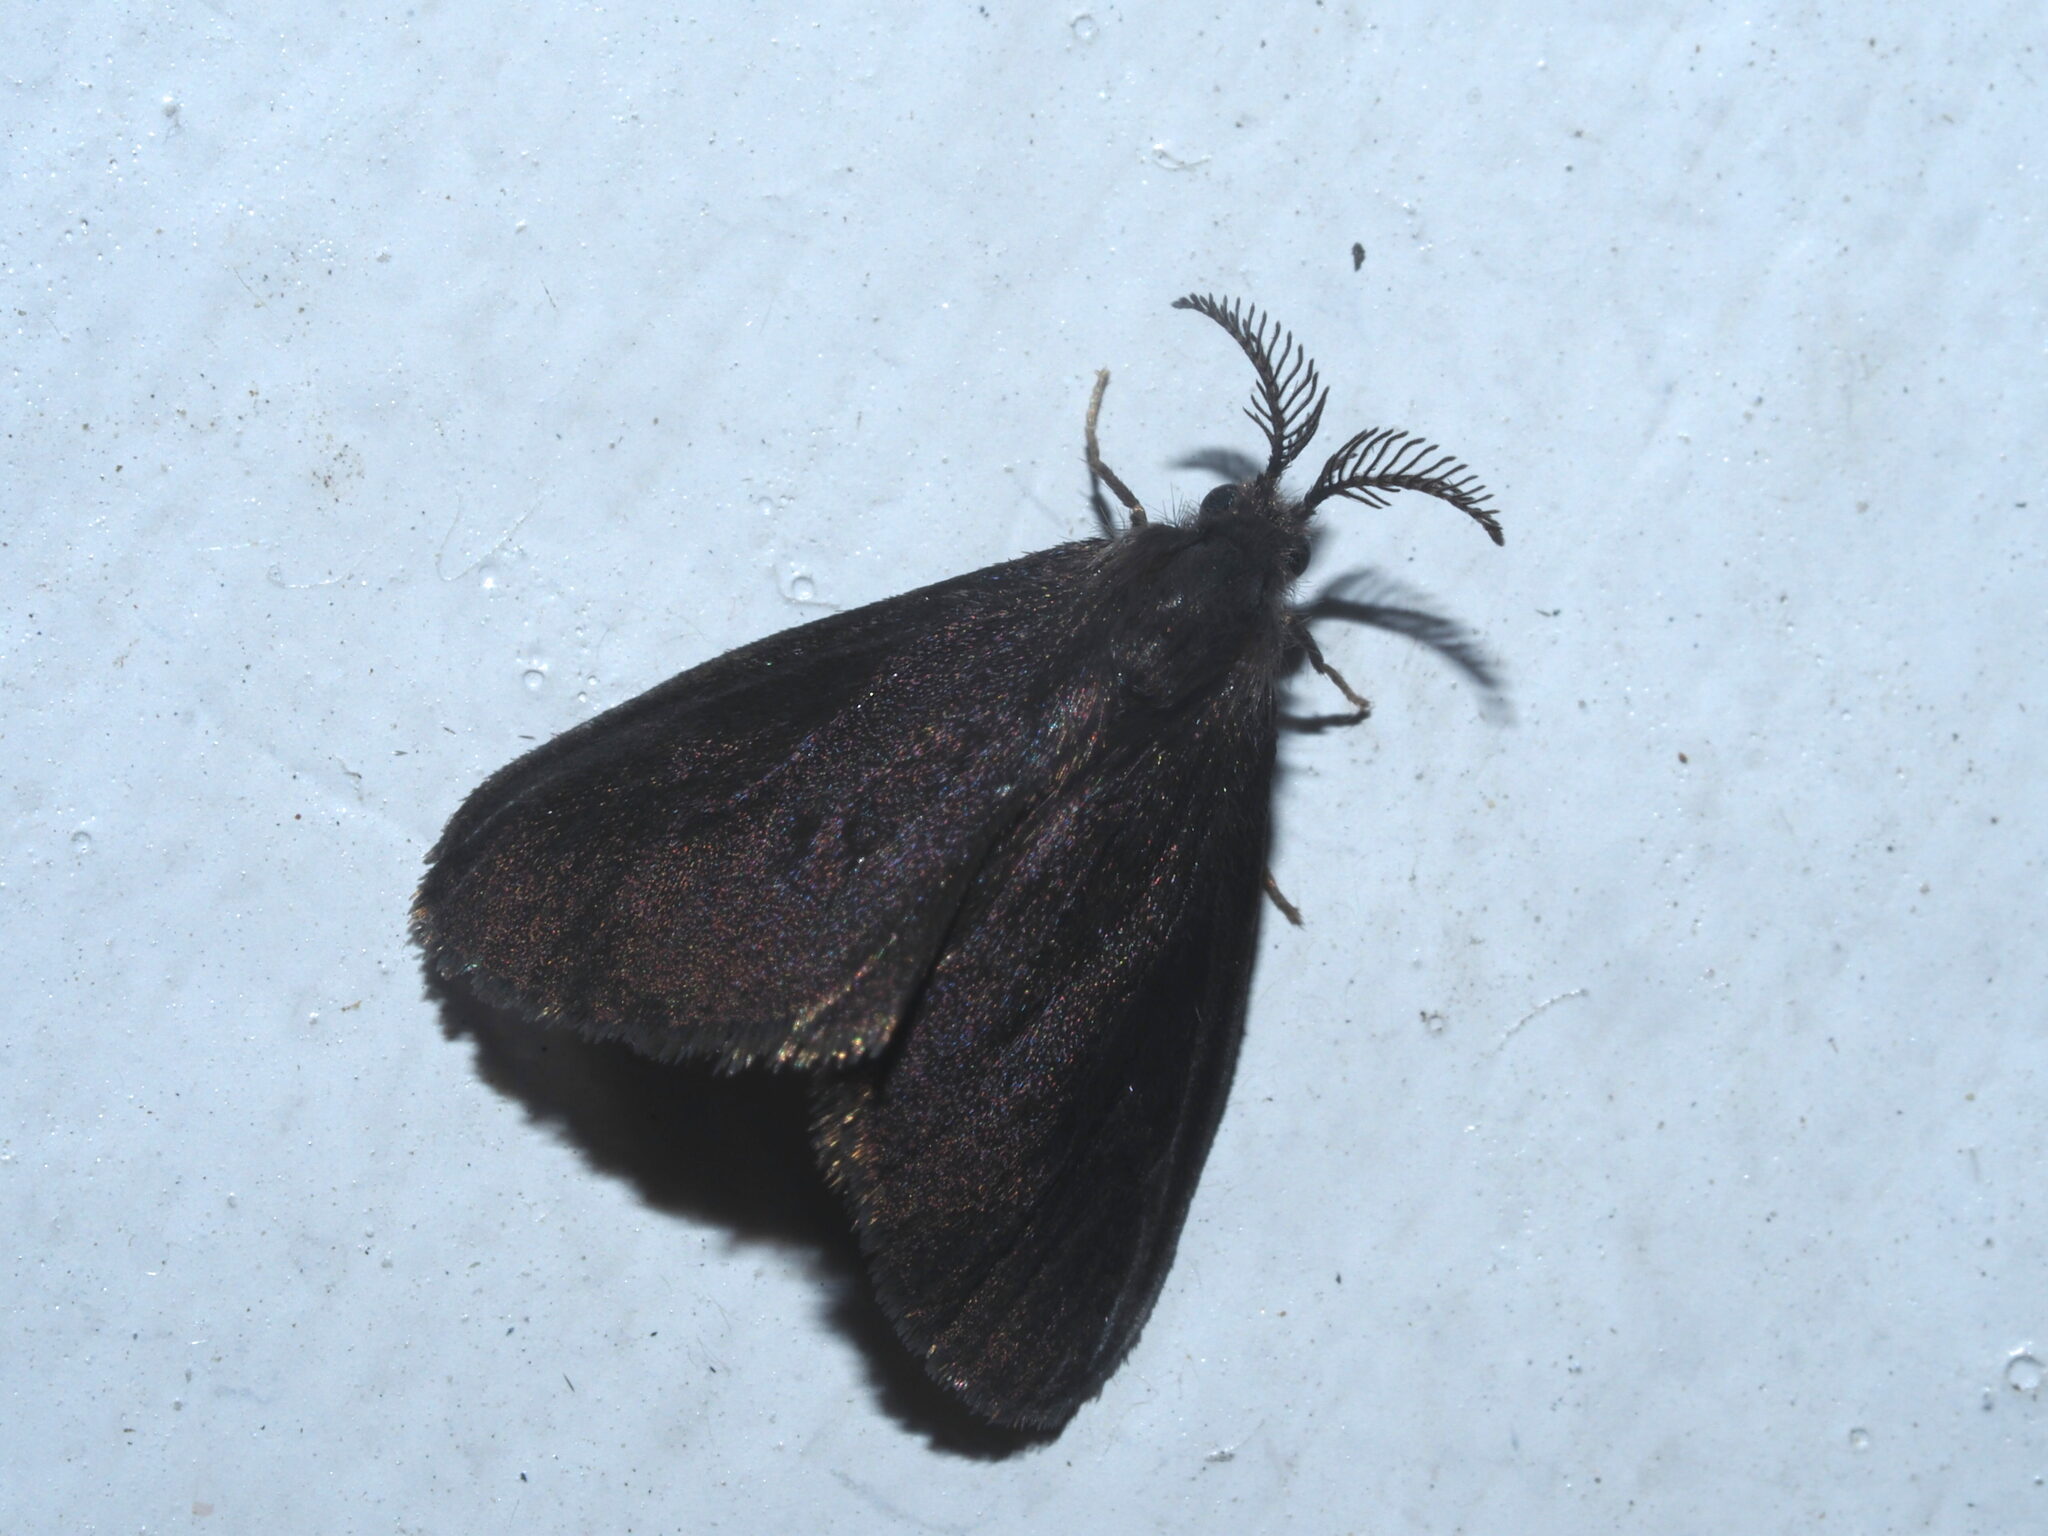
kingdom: Animalia
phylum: Arthropoda
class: Insecta
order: Lepidoptera
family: Psychidae
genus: Brachycyttarus
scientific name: Brachycyttarus griseus
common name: Grass bagworm
